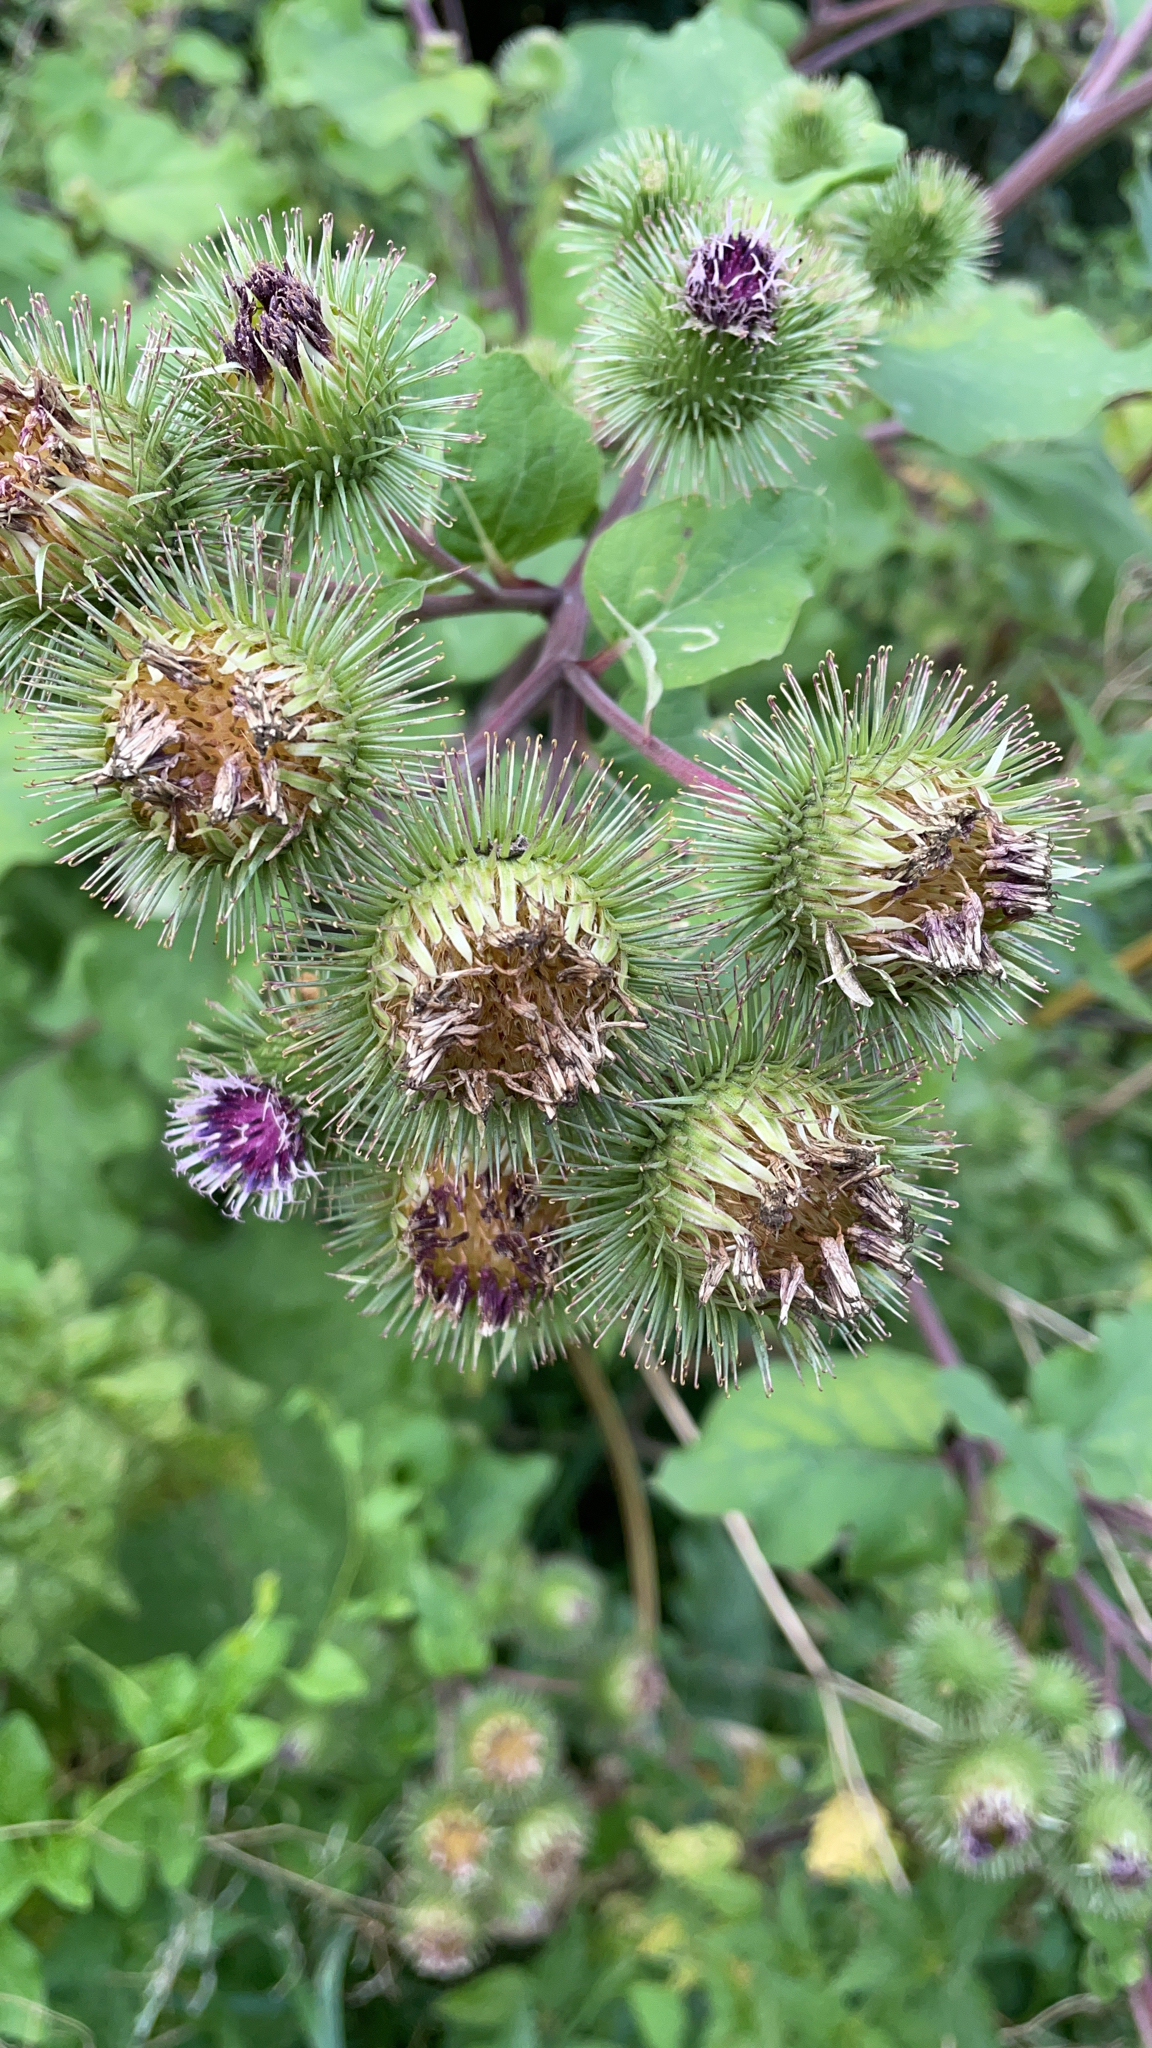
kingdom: Plantae
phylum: Tracheophyta
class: Magnoliopsida
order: Asterales
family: Asteraceae
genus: Arctium
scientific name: Arctium lappa
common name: Greater burdock
